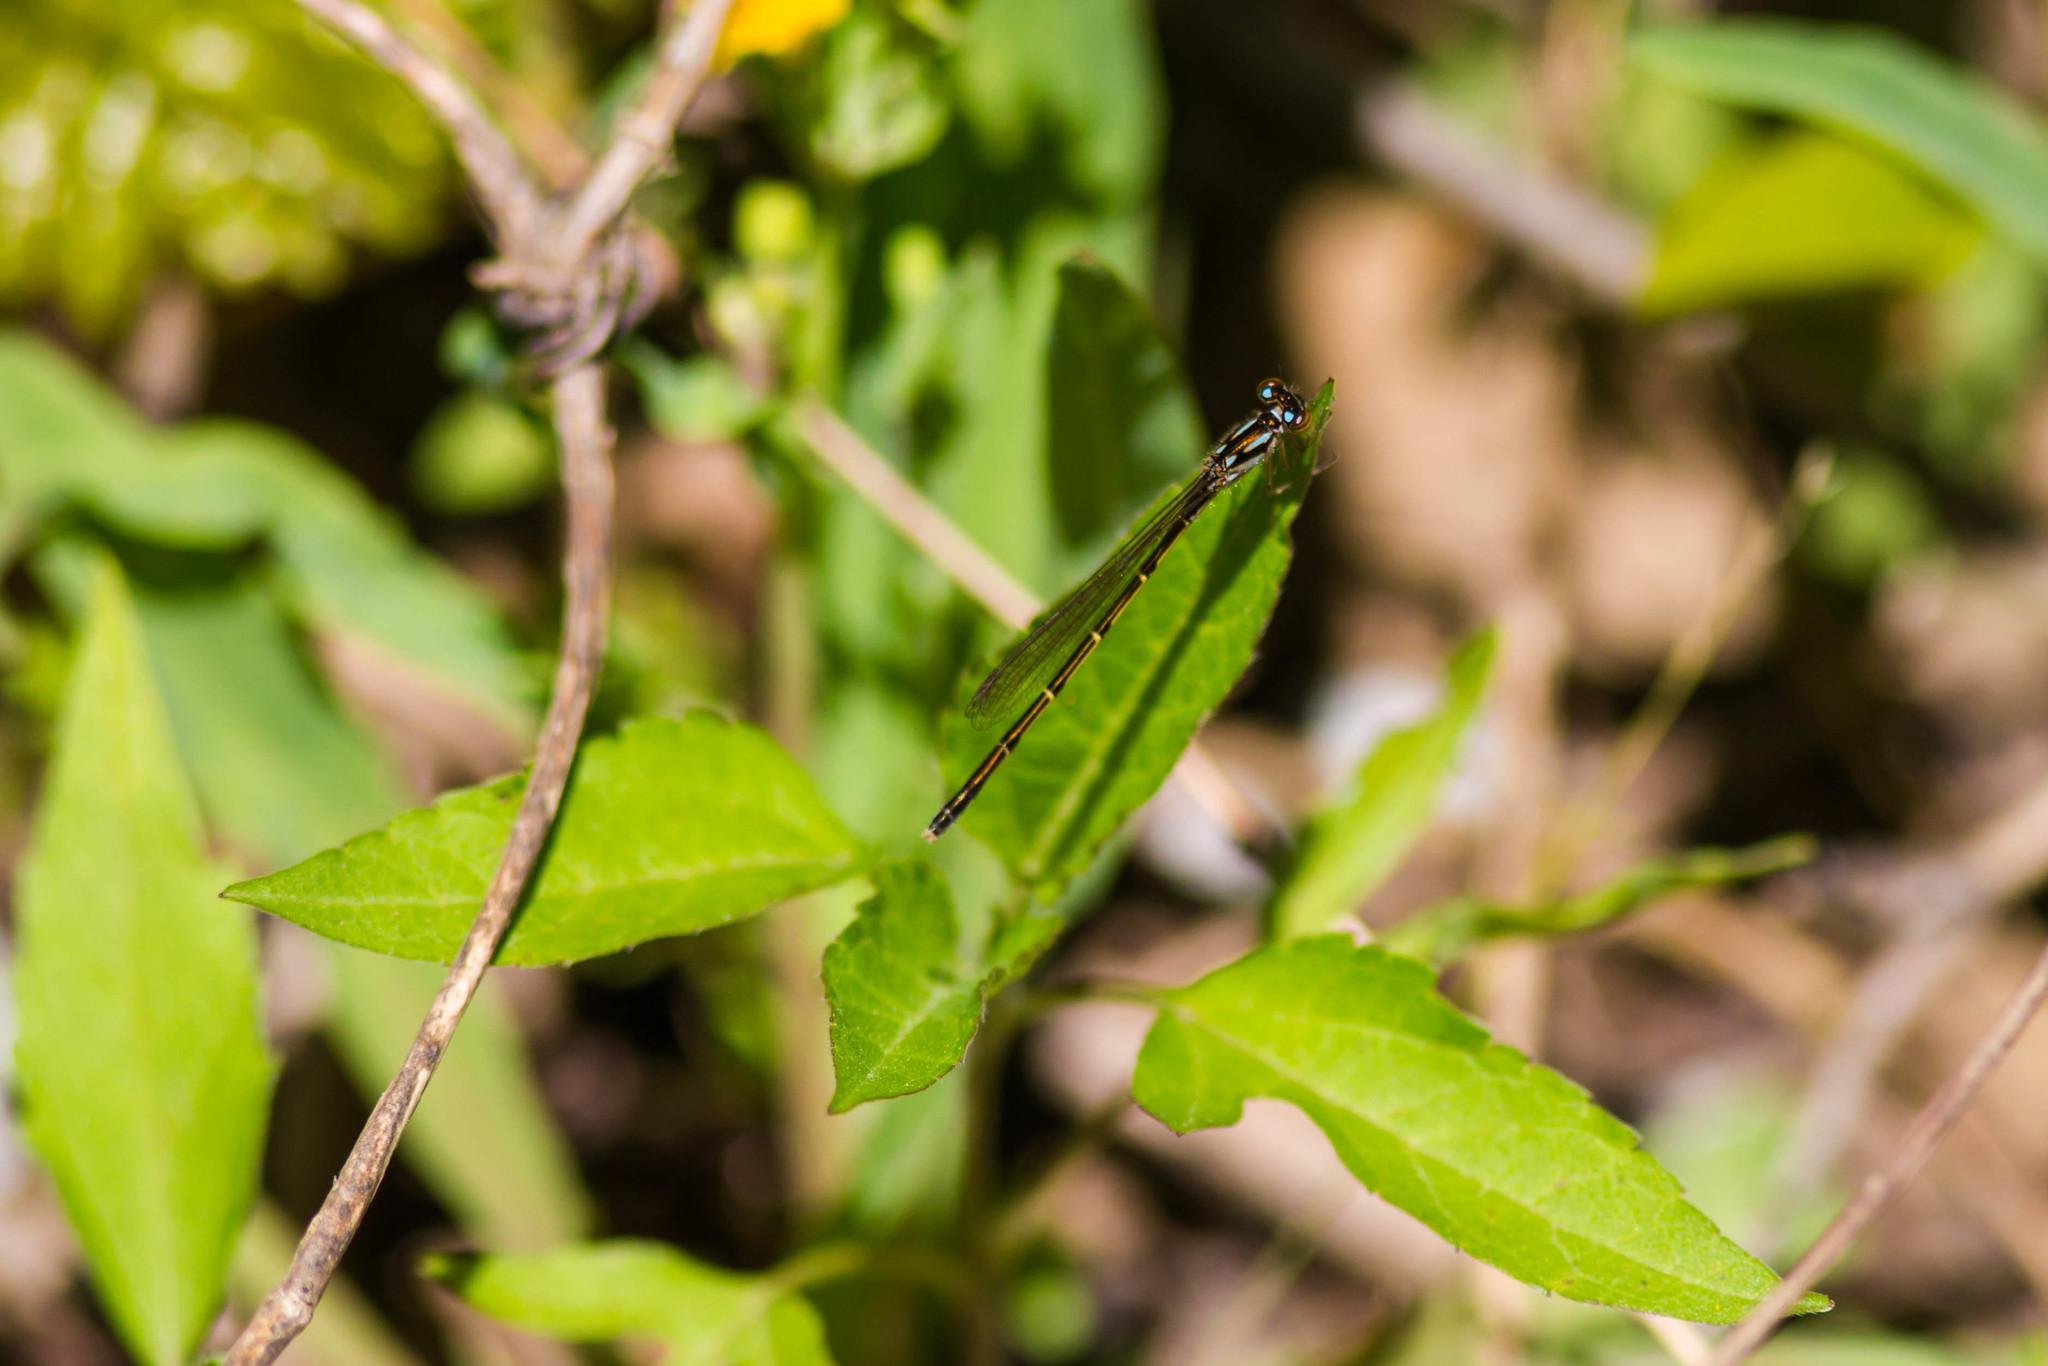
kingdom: Animalia
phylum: Arthropoda
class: Insecta
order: Odonata
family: Coenagrionidae
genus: Ischnura
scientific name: Ischnura posita
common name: Fragile forktail
